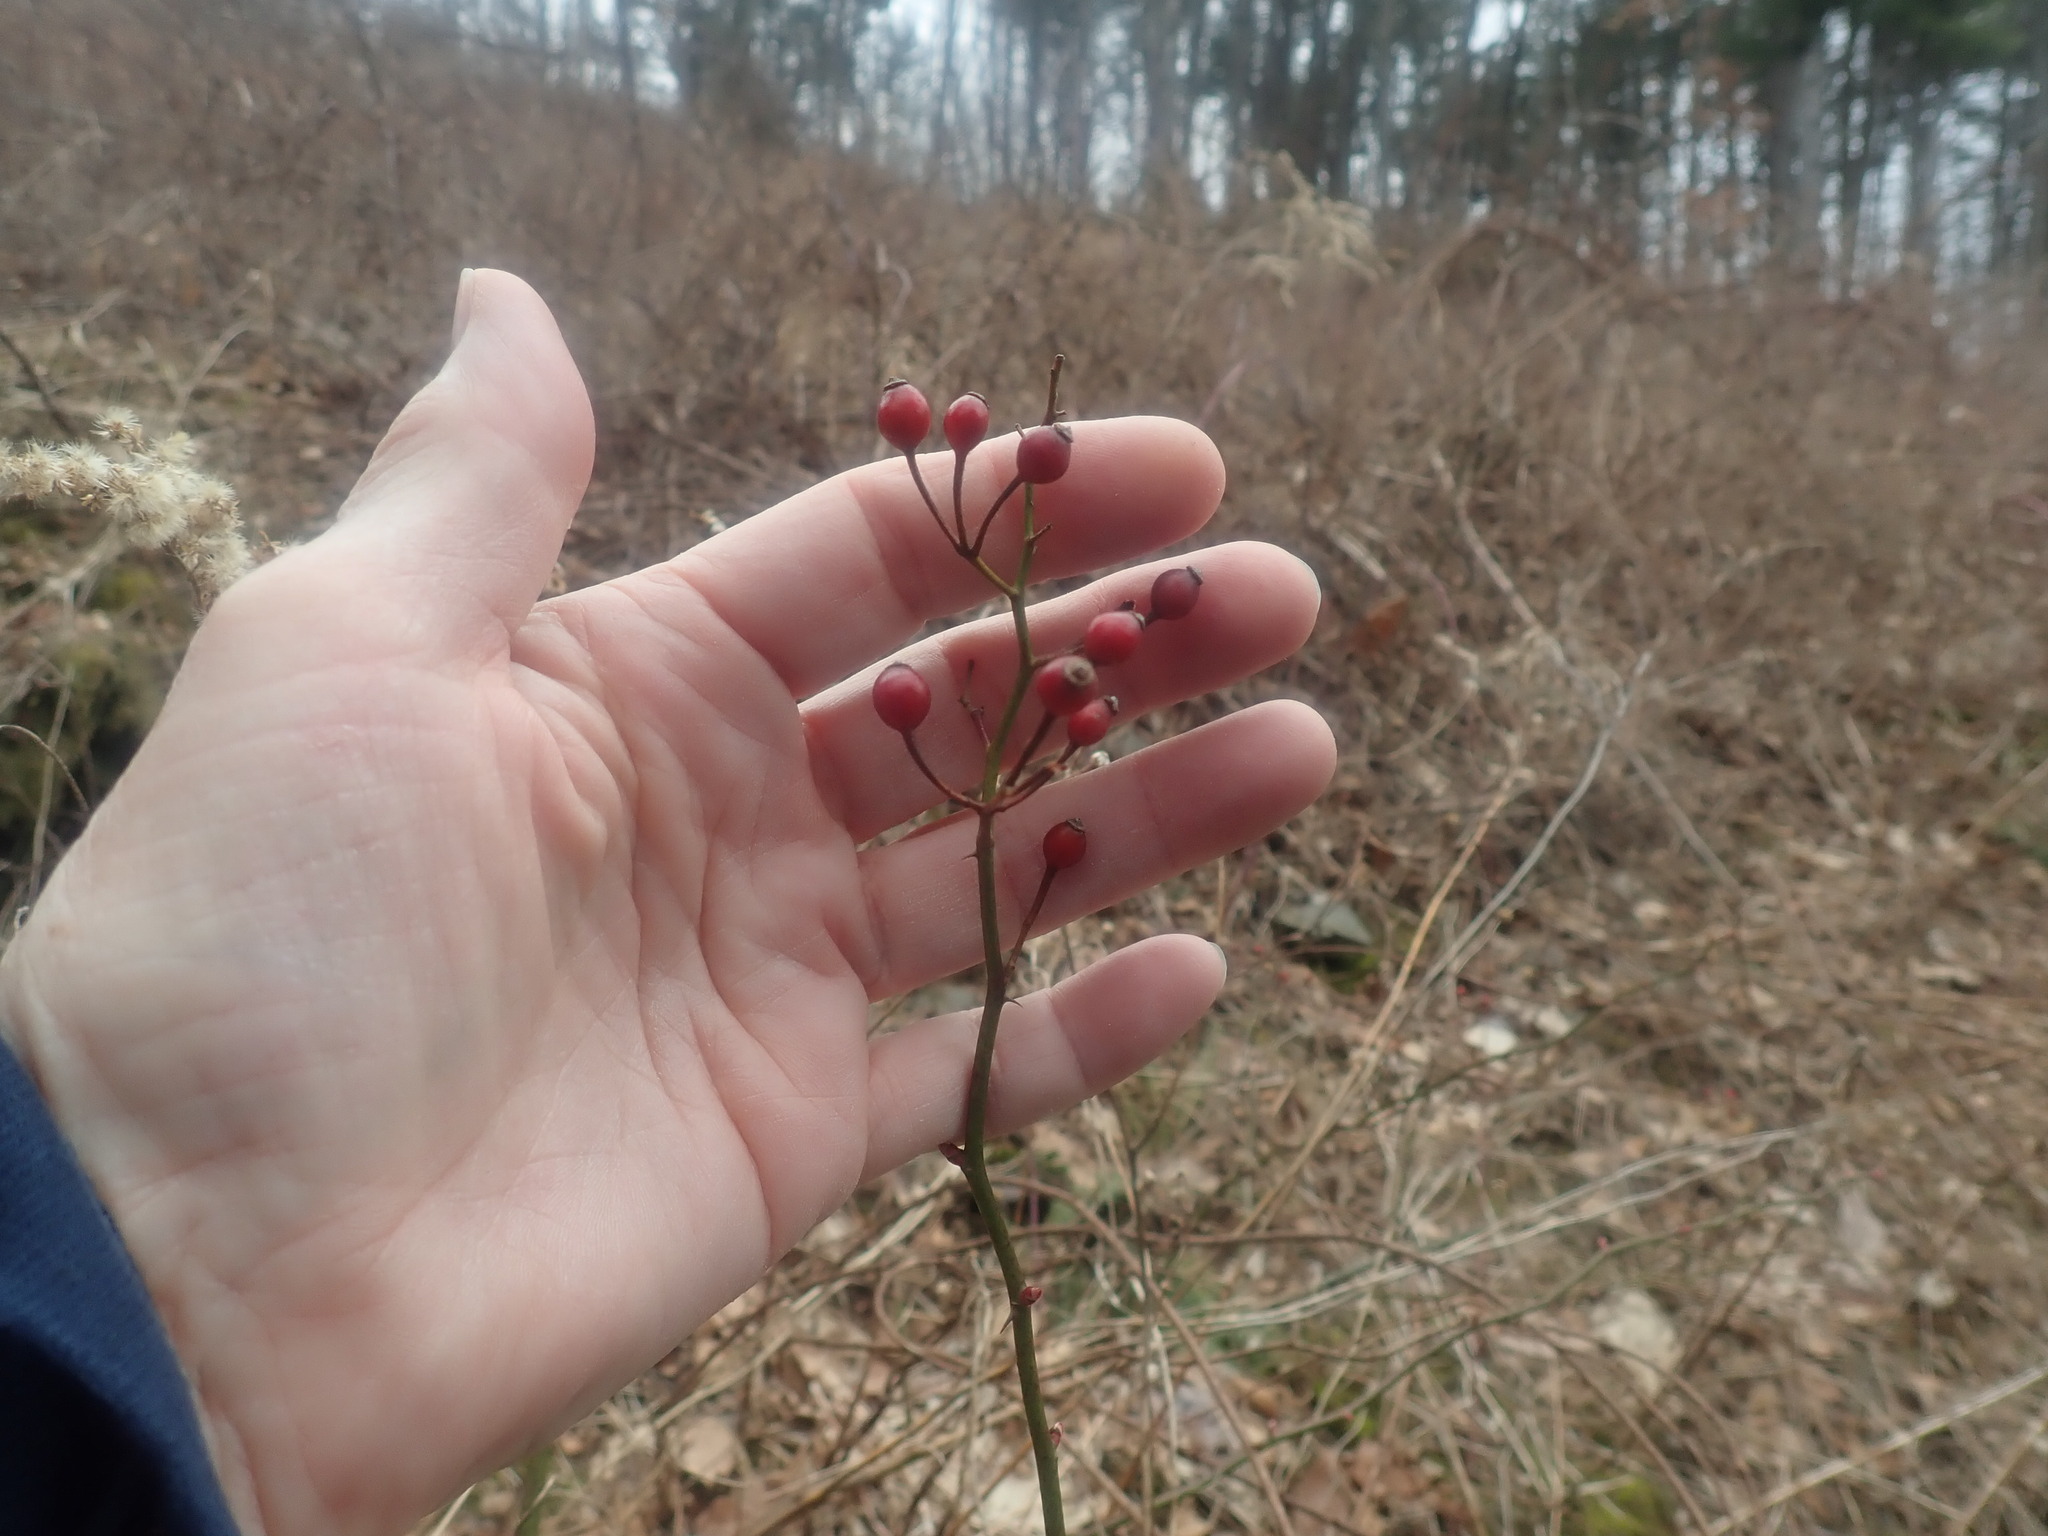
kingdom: Plantae
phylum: Tracheophyta
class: Magnoliopsida
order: Rosales
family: Rosaceae
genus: Rosa
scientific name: Rosa multiflora
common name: Multiflora rose
